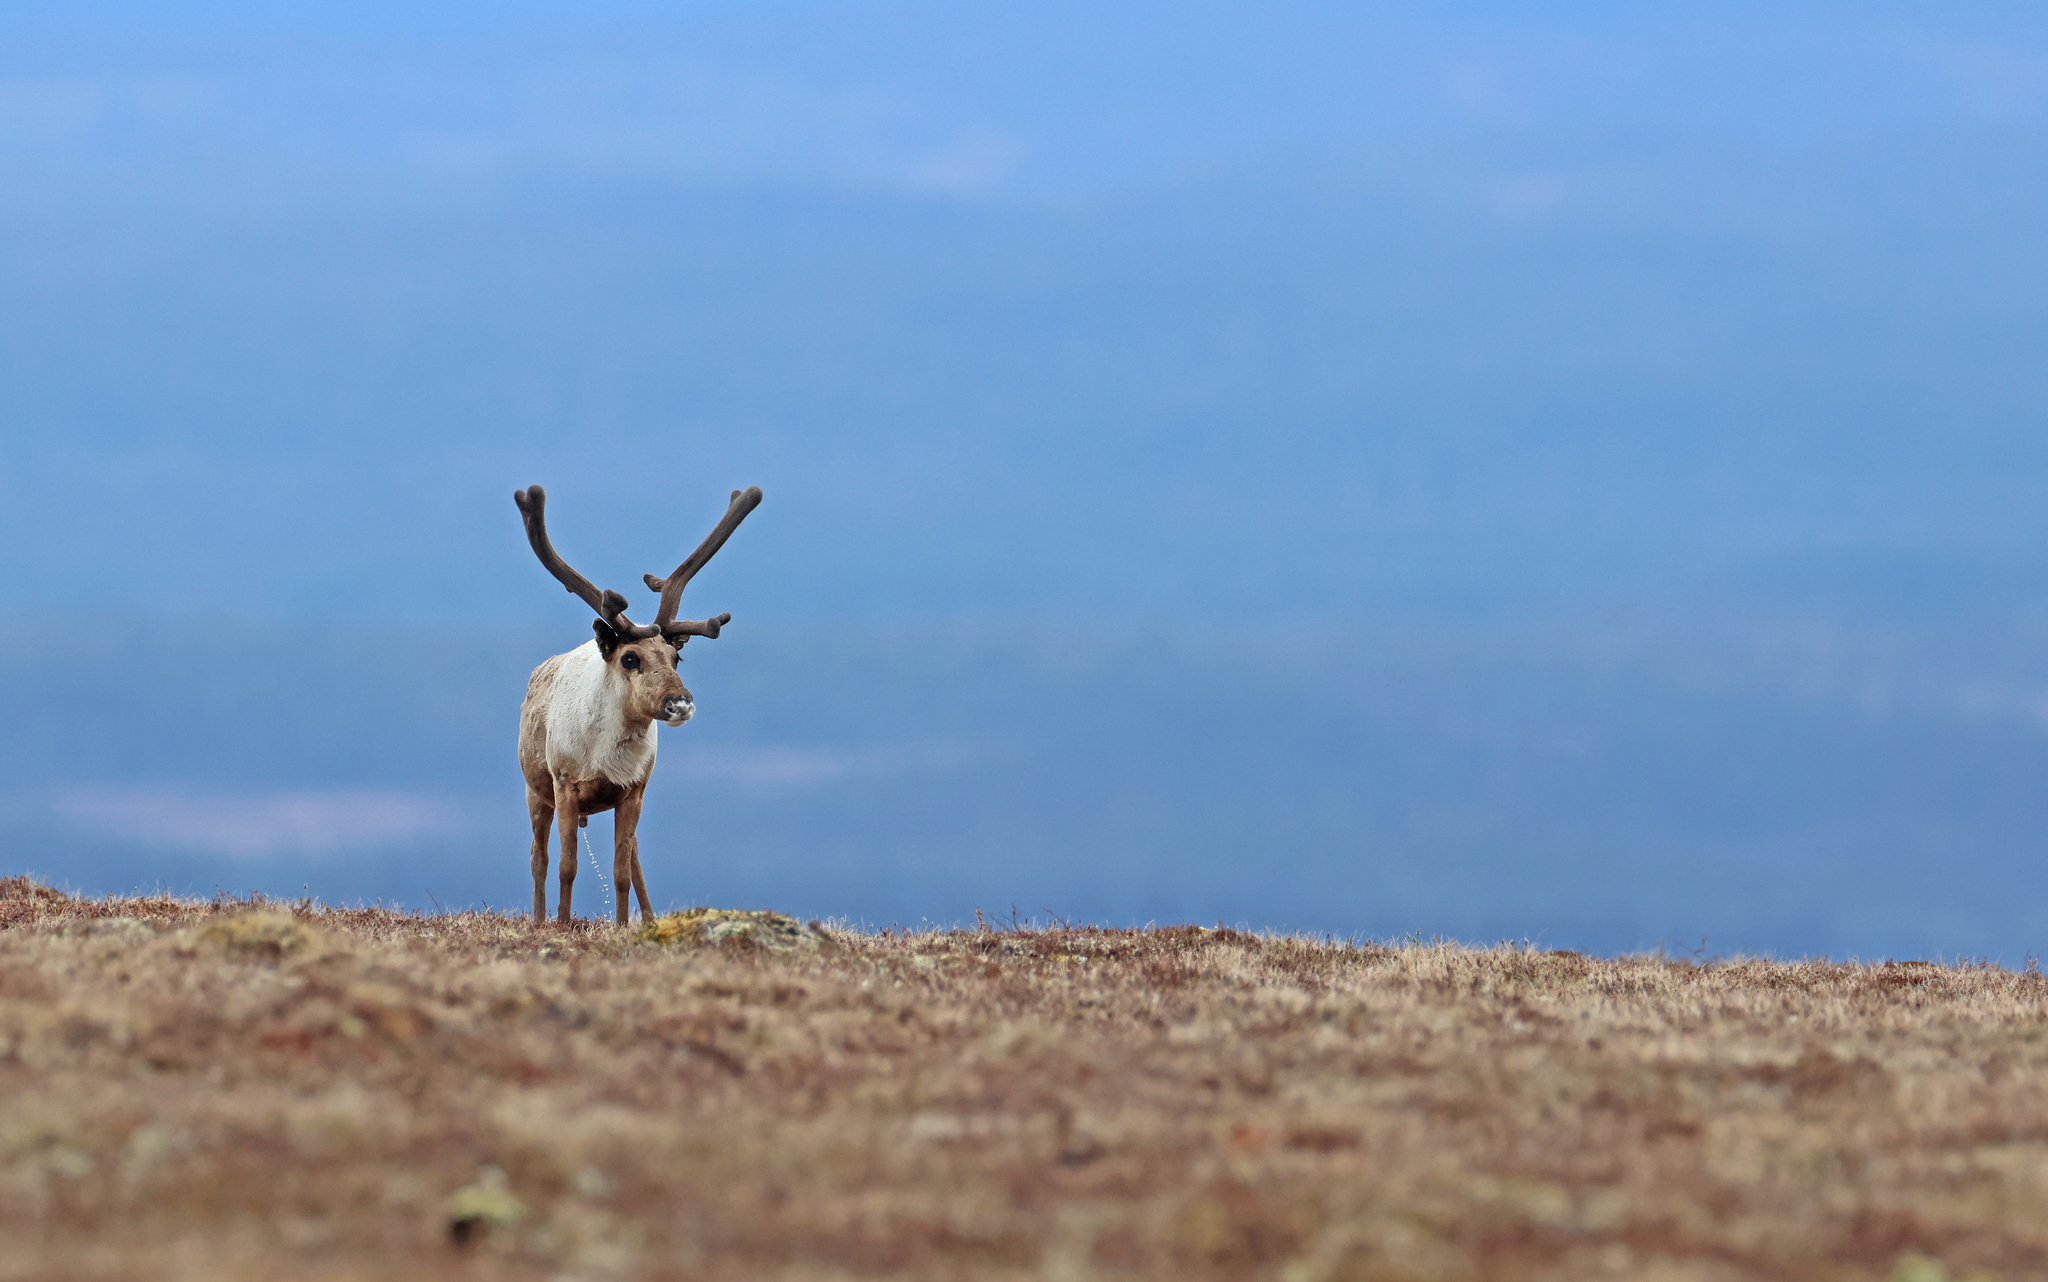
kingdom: Animalia
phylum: Chordata
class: Mammalia
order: Artiodactyla
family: Cervidae
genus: Rangifer
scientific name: Rangifer tarandus
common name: Reindeer
